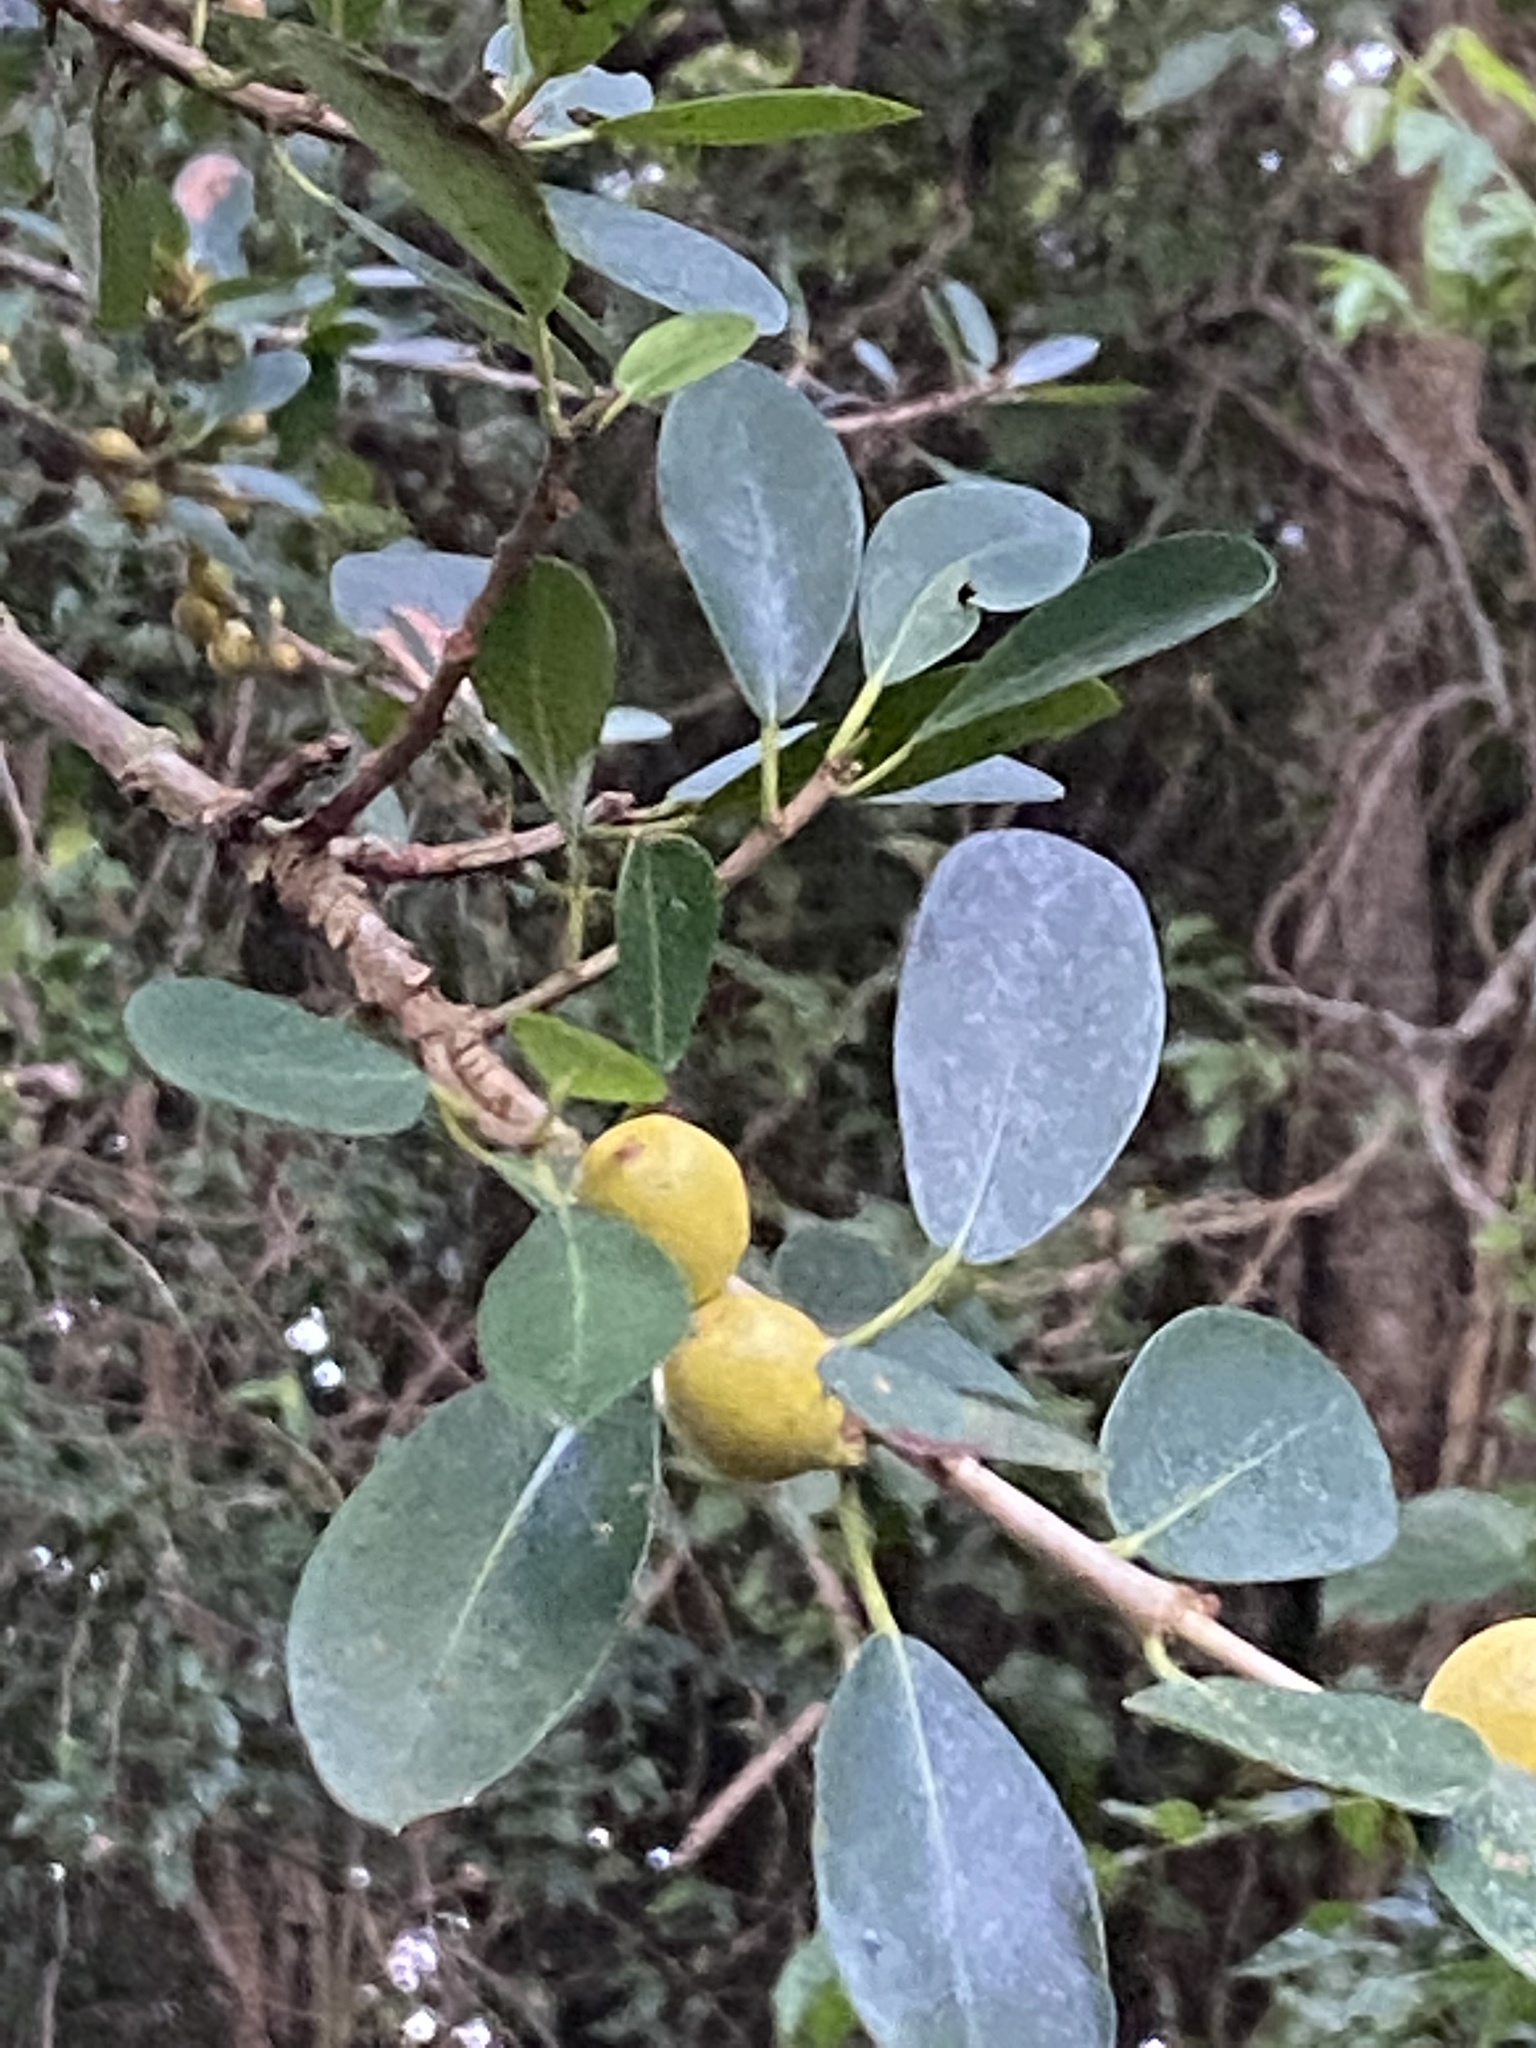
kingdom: Plantae
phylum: Tracheophyta
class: Magnoliopsida
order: Rosales
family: Moraceae
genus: Ficus
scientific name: Ficus natalensis
